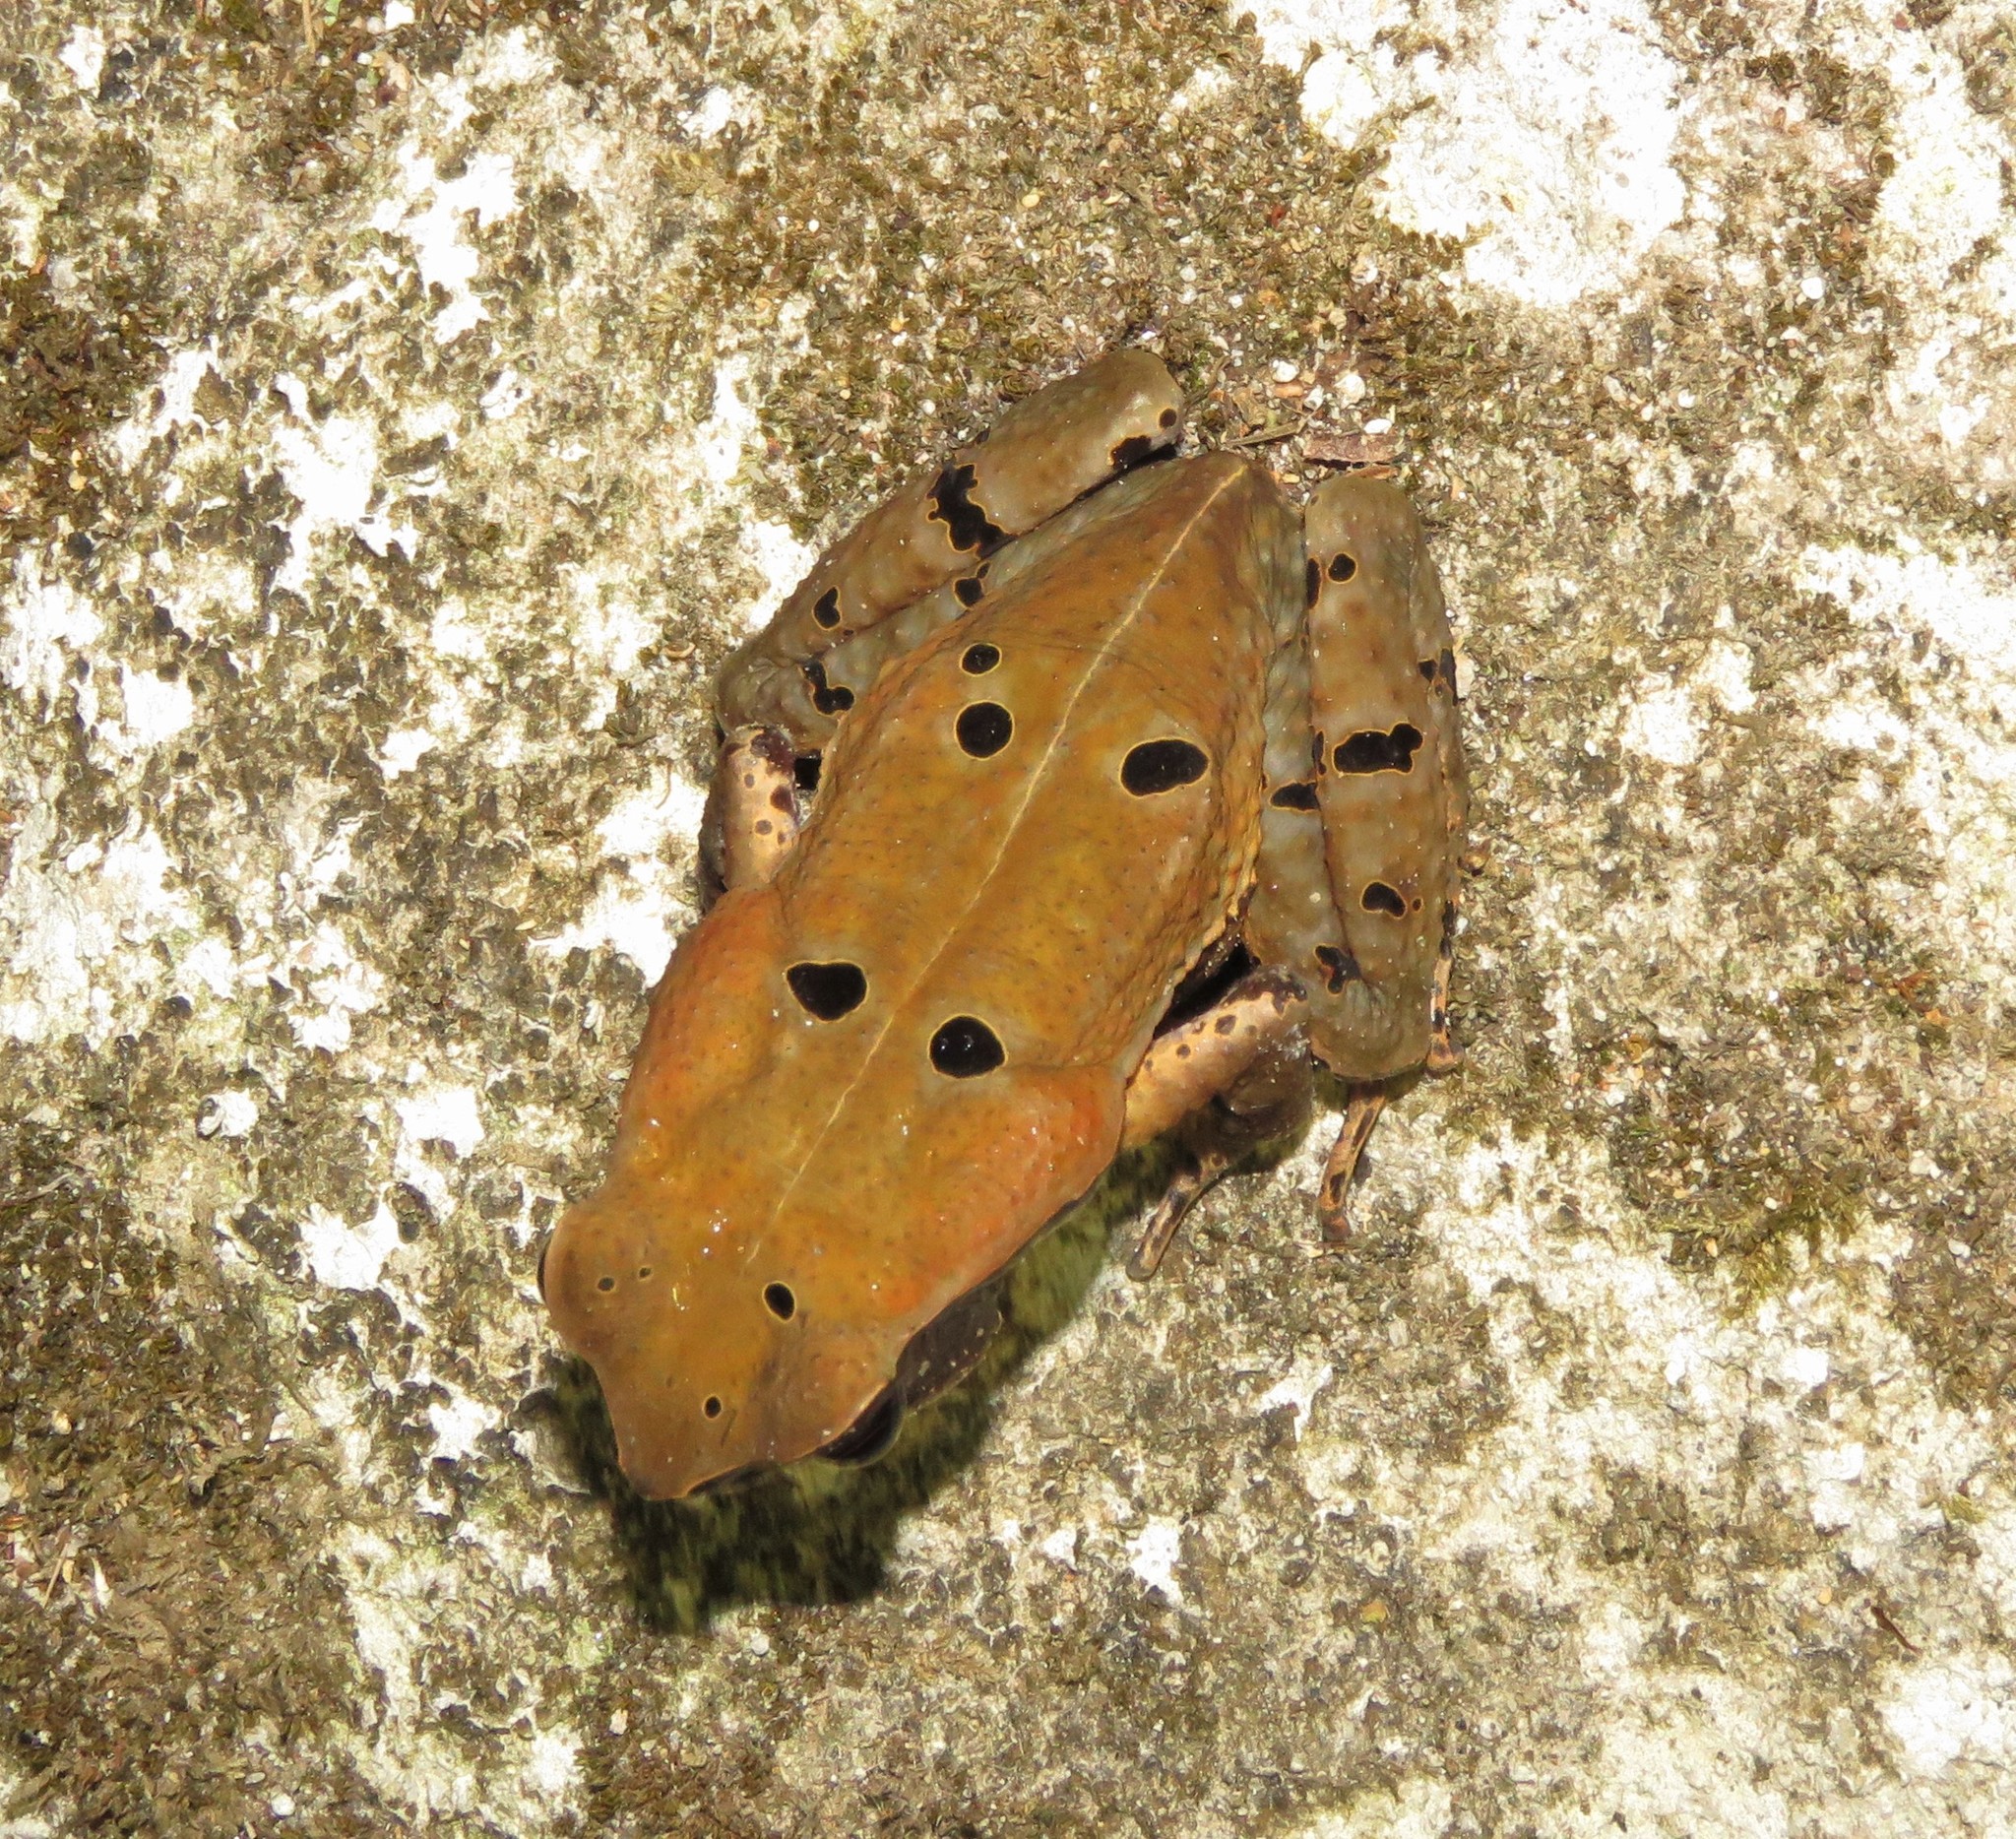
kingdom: Animalia
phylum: Chordata
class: Amphibia
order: Anura
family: Bufonidae
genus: Rhaebo
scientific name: Rhaebo haematiticus
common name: Truando toad
